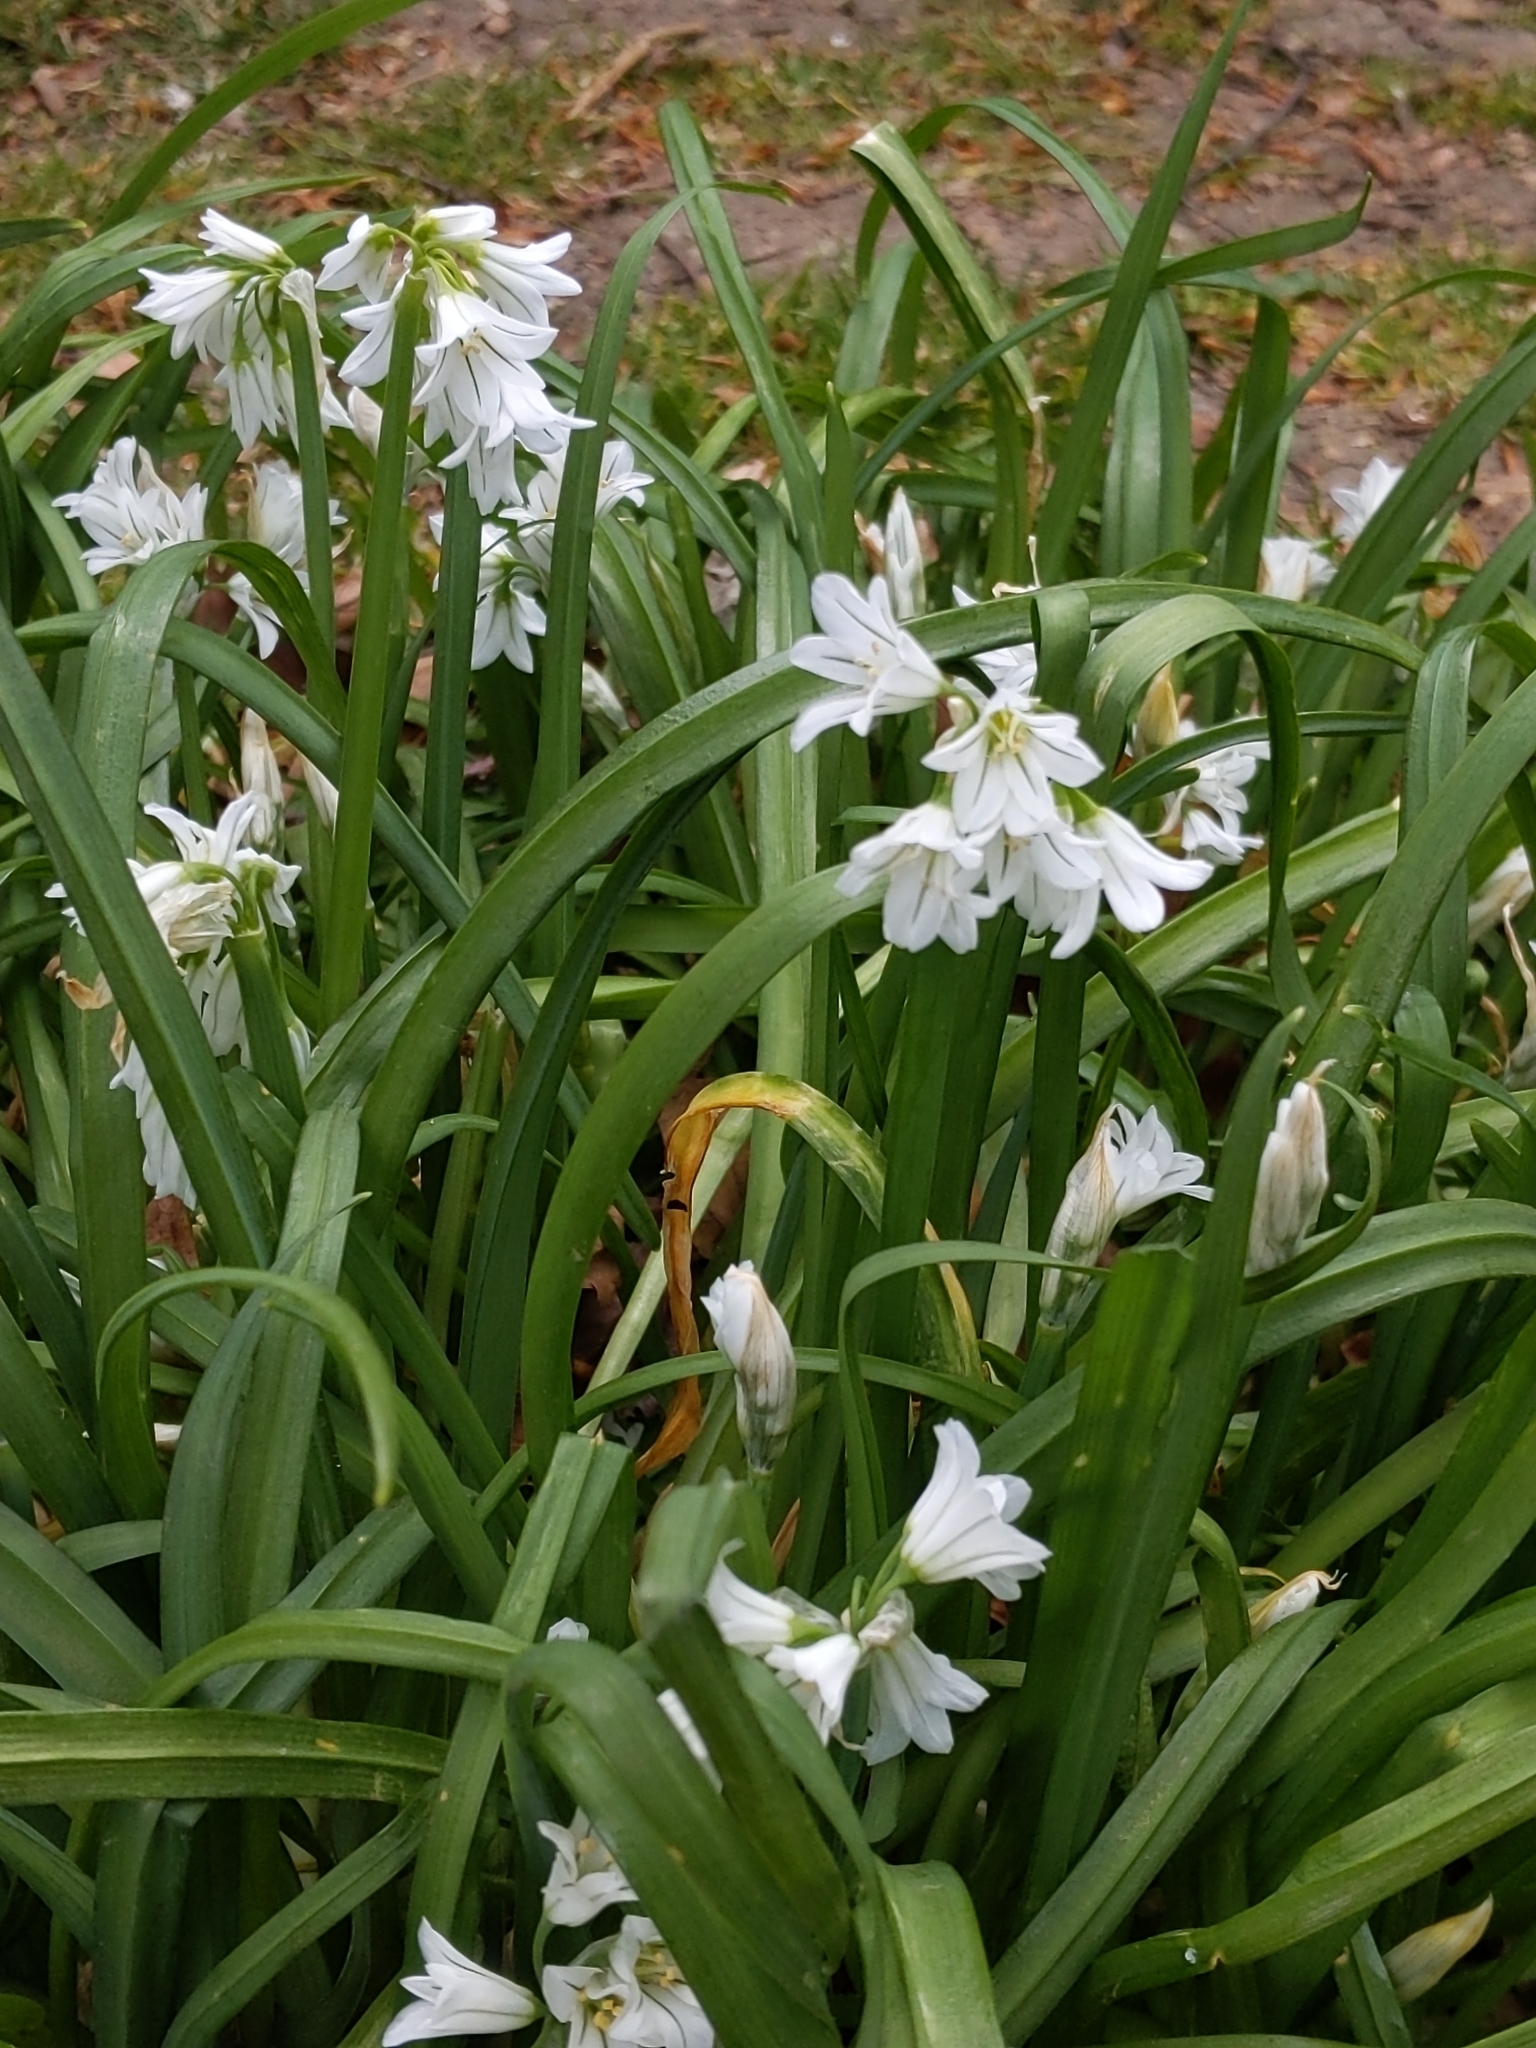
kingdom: Plantae
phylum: Tracheophyta
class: Liliopsida
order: Asparagales
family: Amaryllidaceae
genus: Allium
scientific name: Allium triquetrum
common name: Three-cornered garlic
